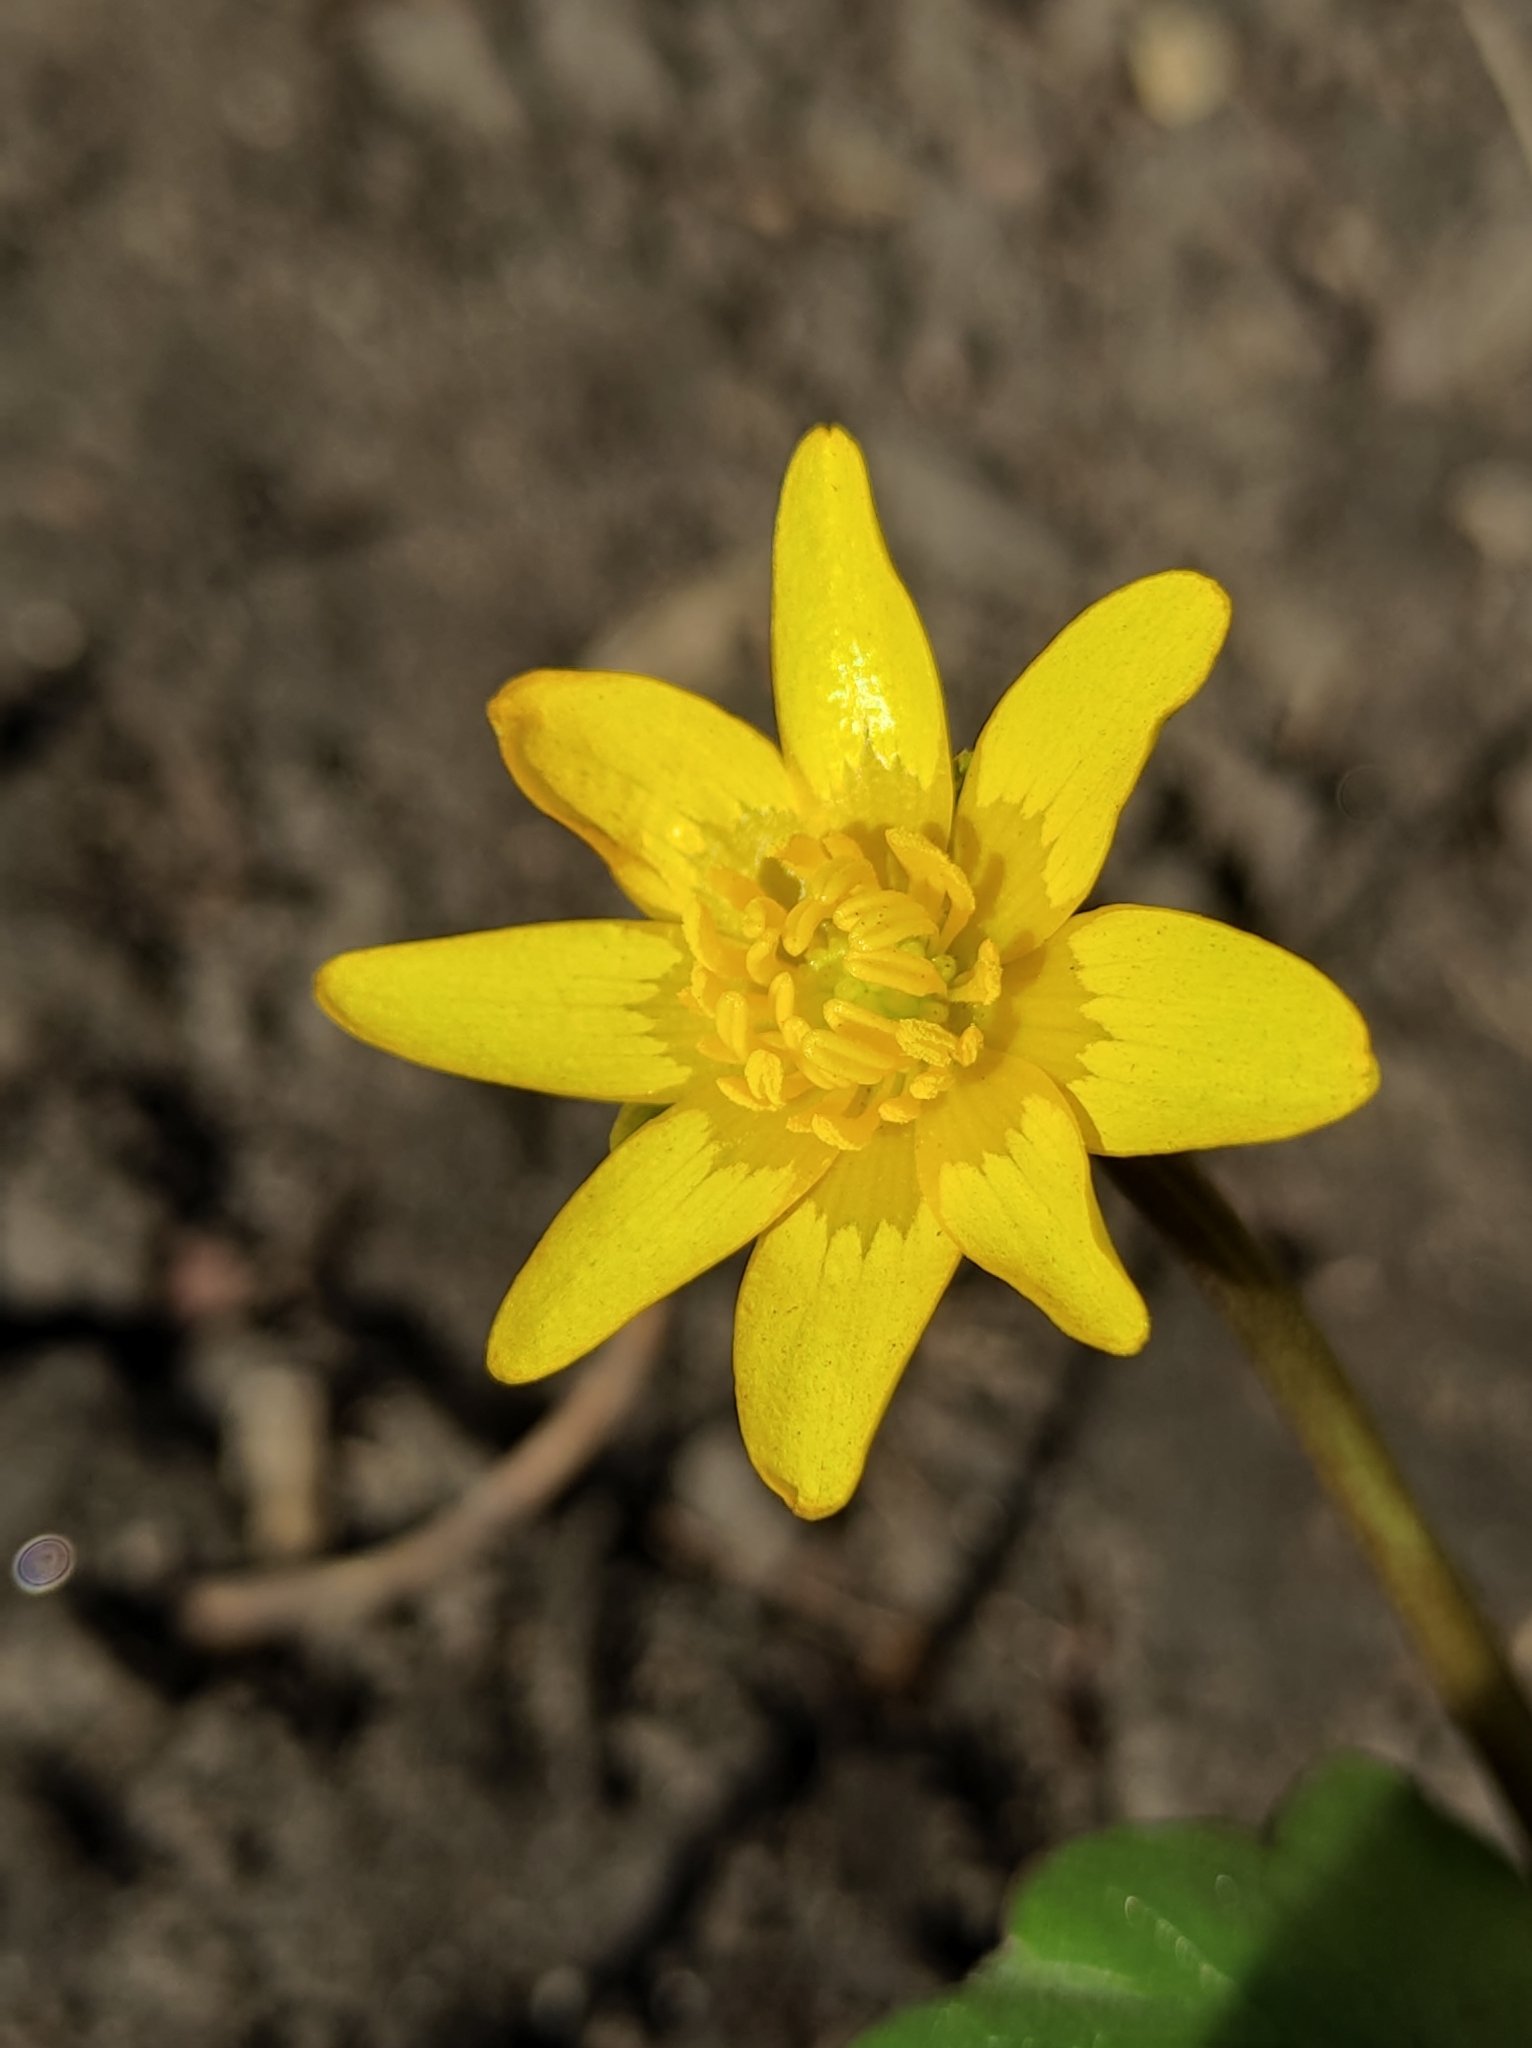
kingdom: Plantae
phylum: Tracheophyta
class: Magnoliopsida
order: Ranunculales
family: Ranunculaceae
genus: Ficaria
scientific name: Ficaria verna
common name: Lesser celandine
